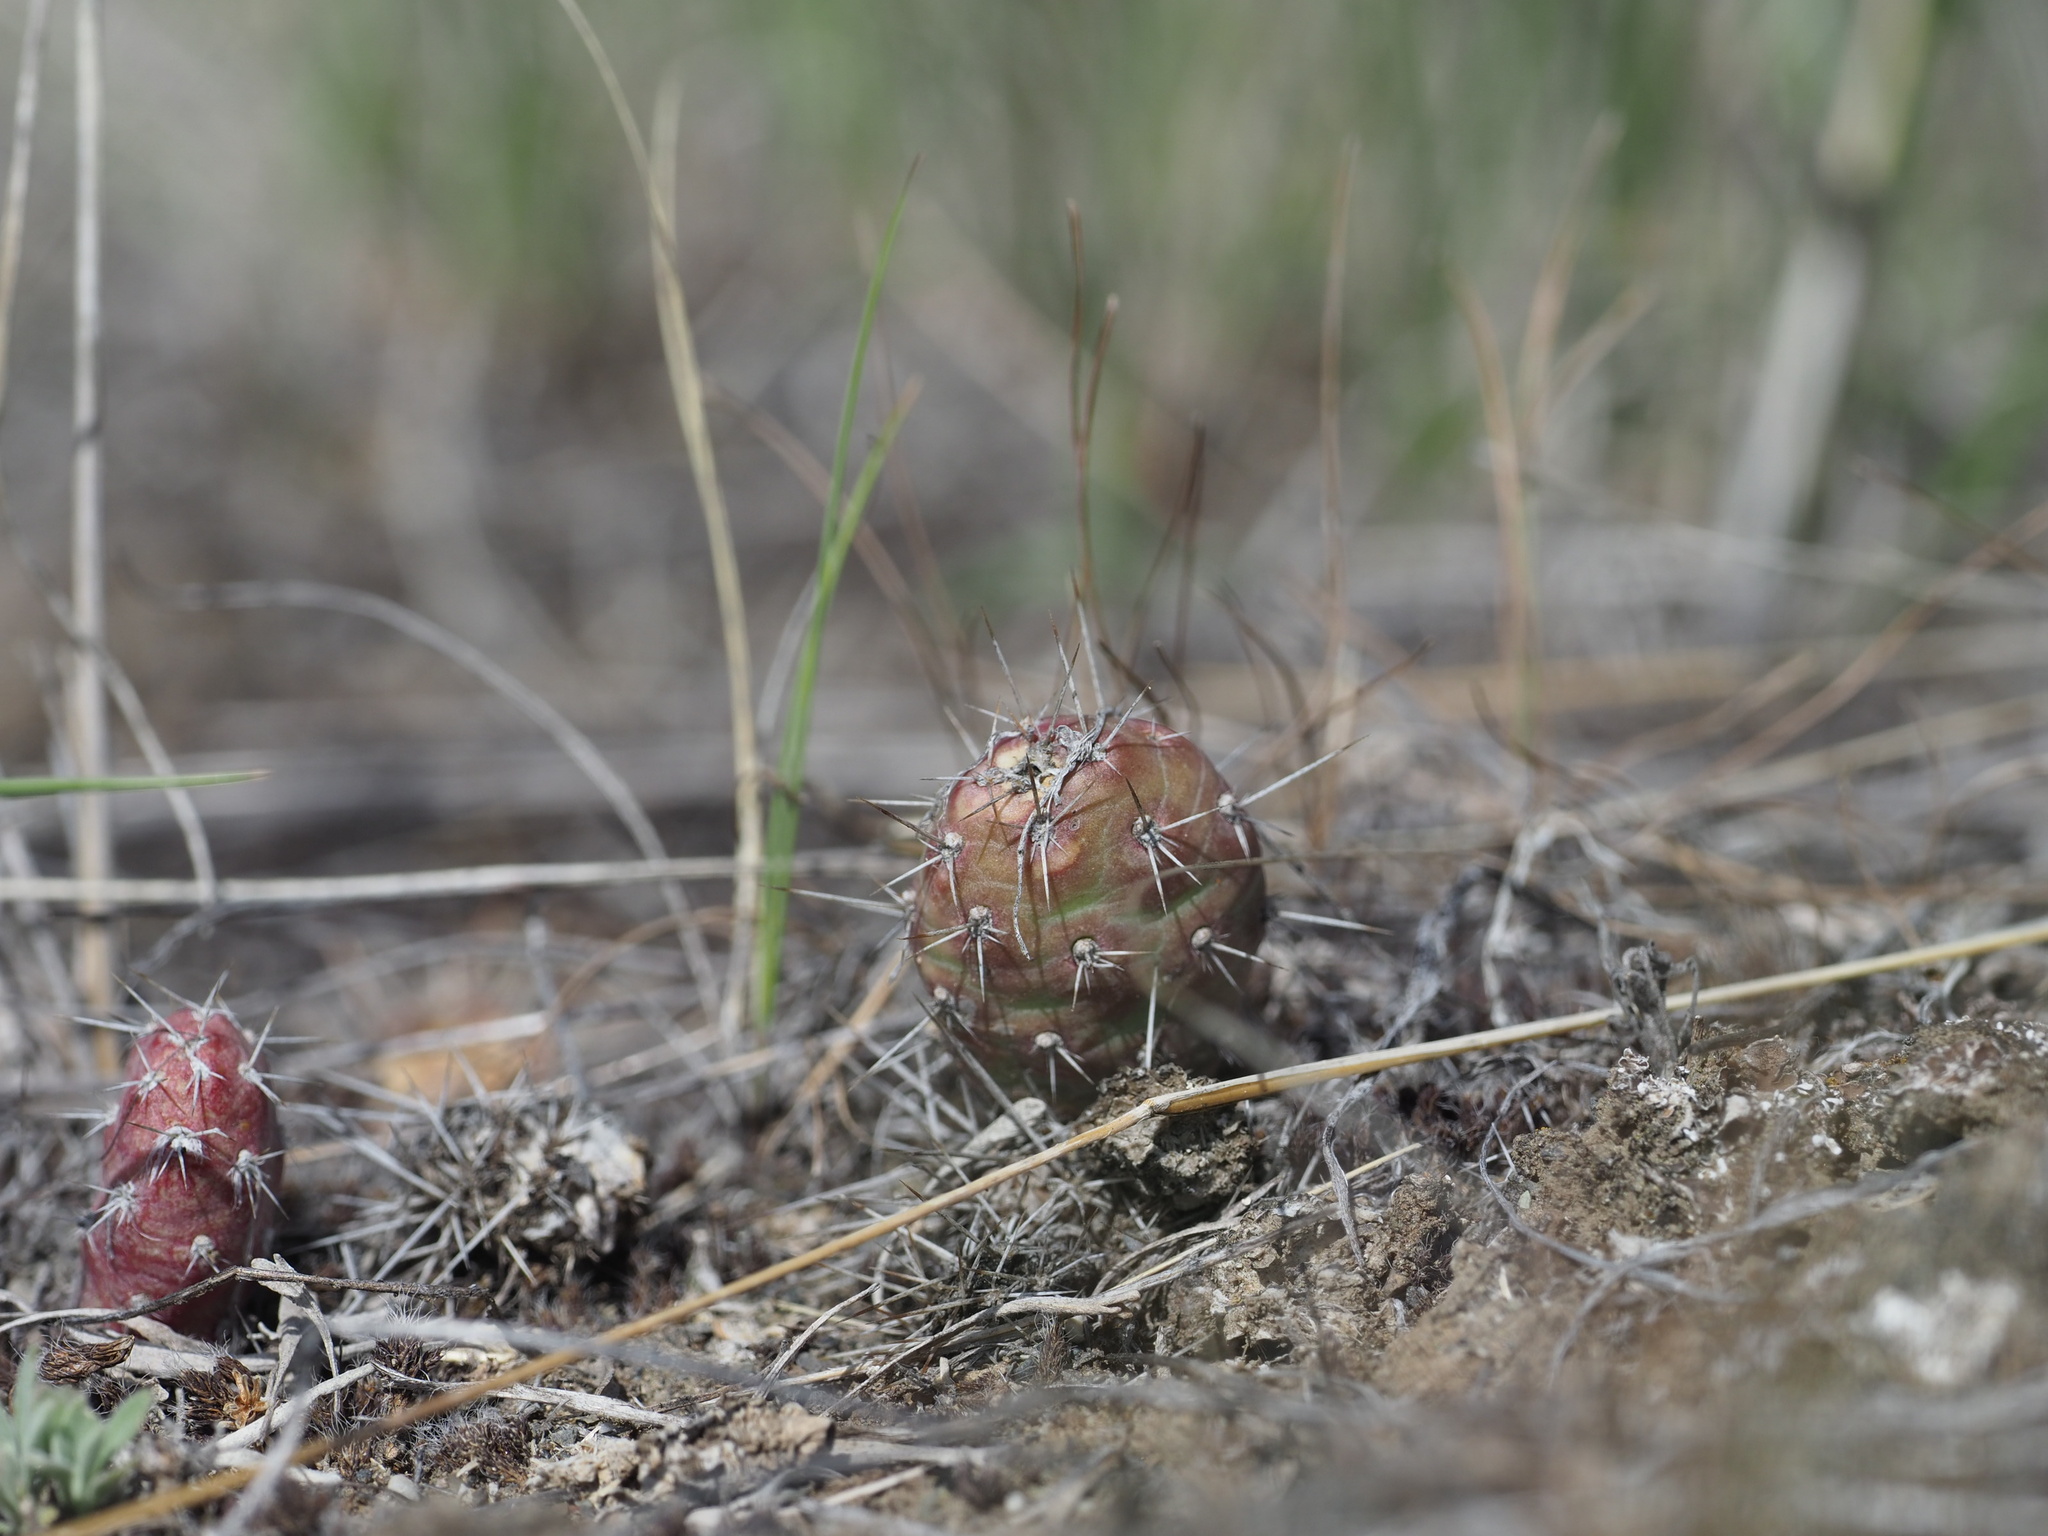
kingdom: Plantae
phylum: Tracheophyta
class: Magnoliopsida
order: Caryophyllales
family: Cactaceae
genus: Opuntia
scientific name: Opuntia fragilis
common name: Brittle cactus
